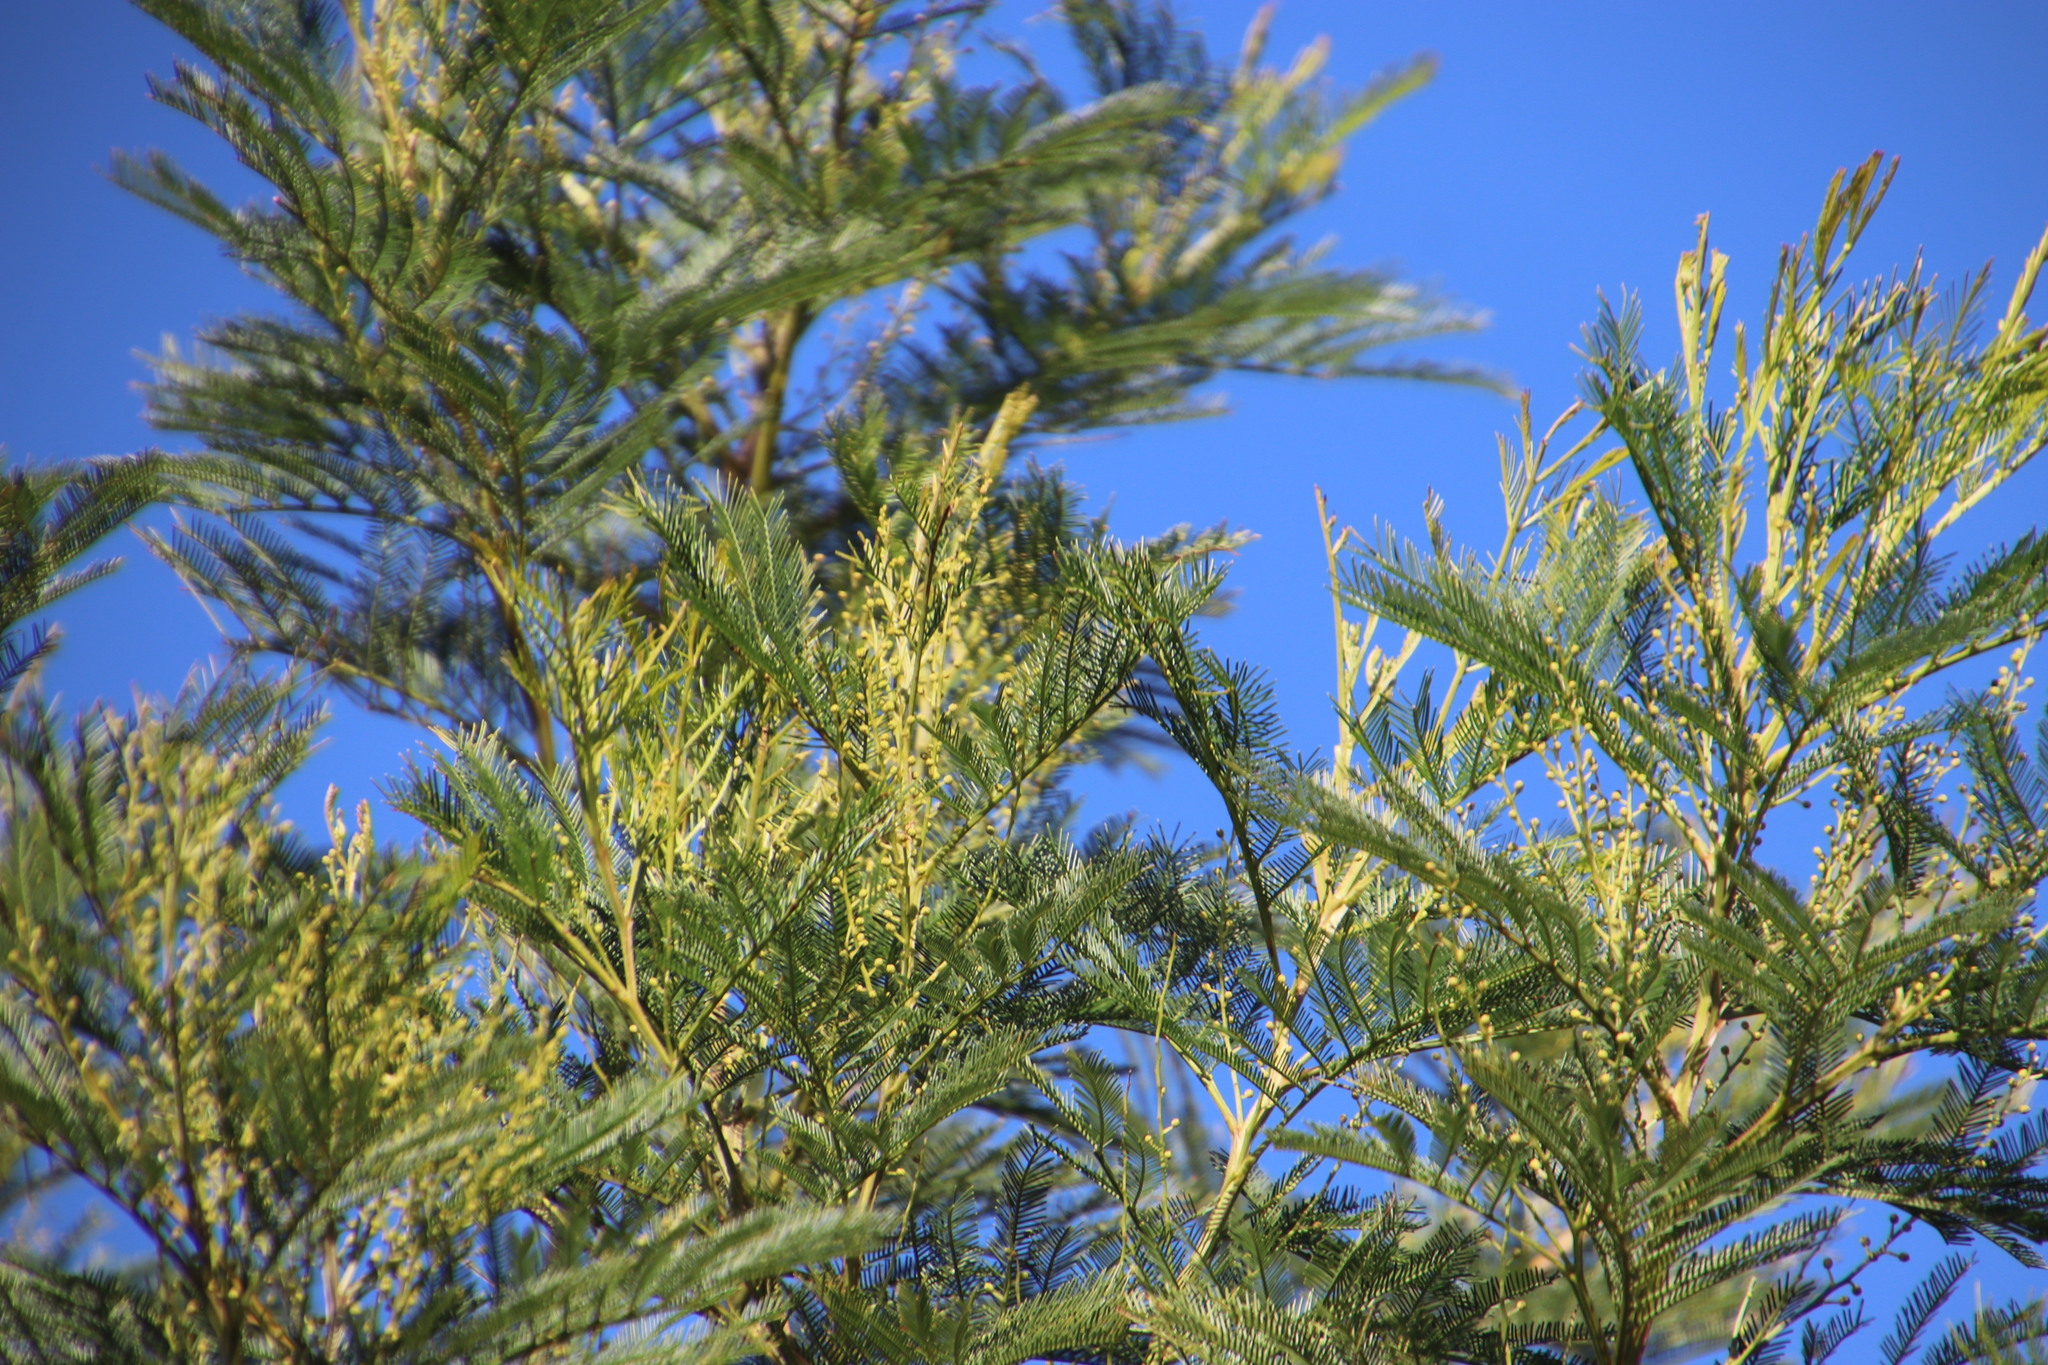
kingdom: Plantae
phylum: Tracheophyta
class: Magnoliopsida
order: Fabales
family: Fabaceae
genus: Acacia
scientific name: Acacia decurrens
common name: Green wattle
